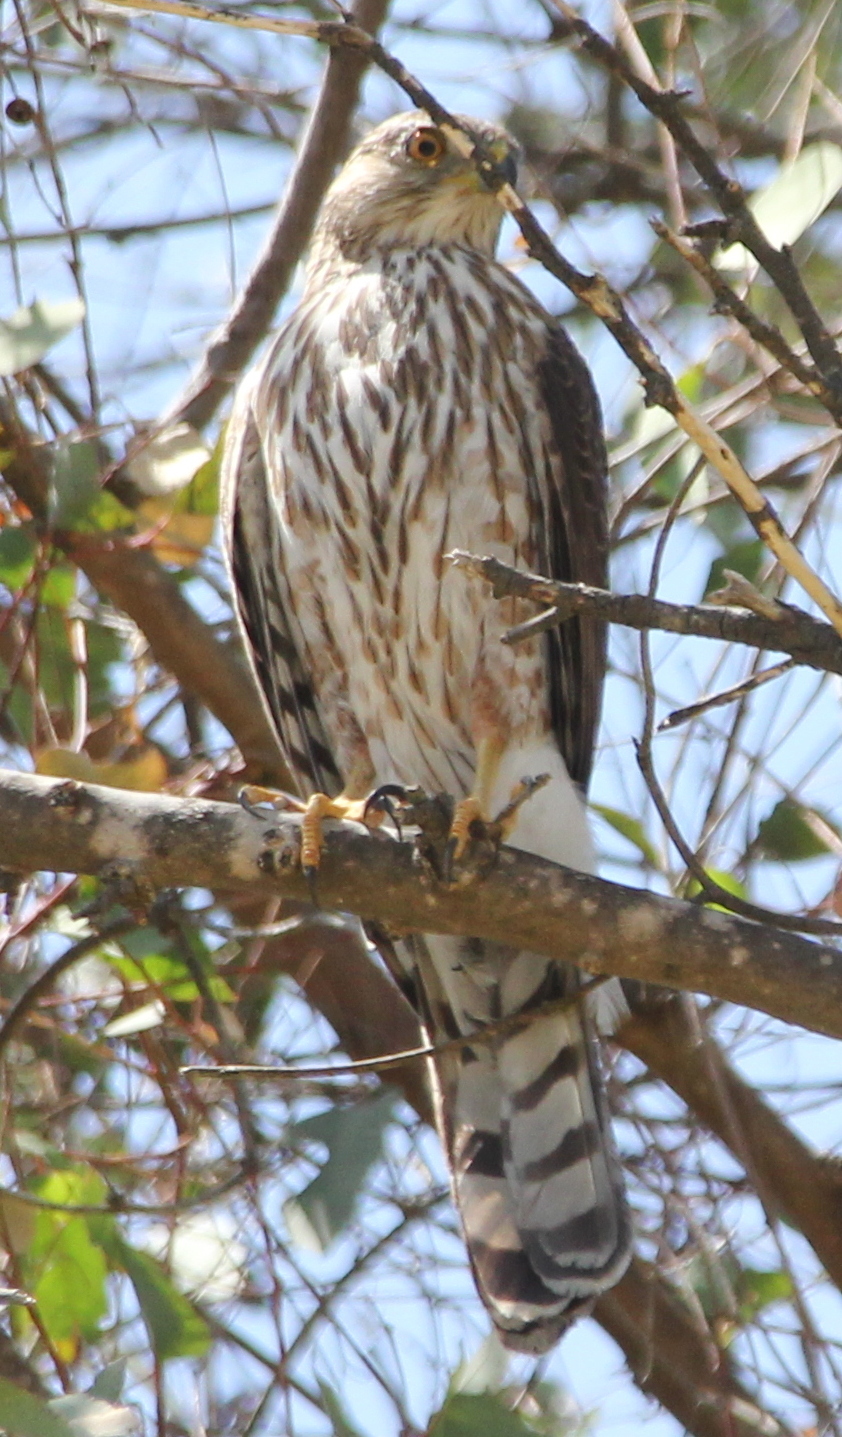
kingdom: Animalia
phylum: Chordata
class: Aves
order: Accipitriformes
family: Accipitridae
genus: Accipiter
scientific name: Accipiter cooperii
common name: Cooper's hawk
